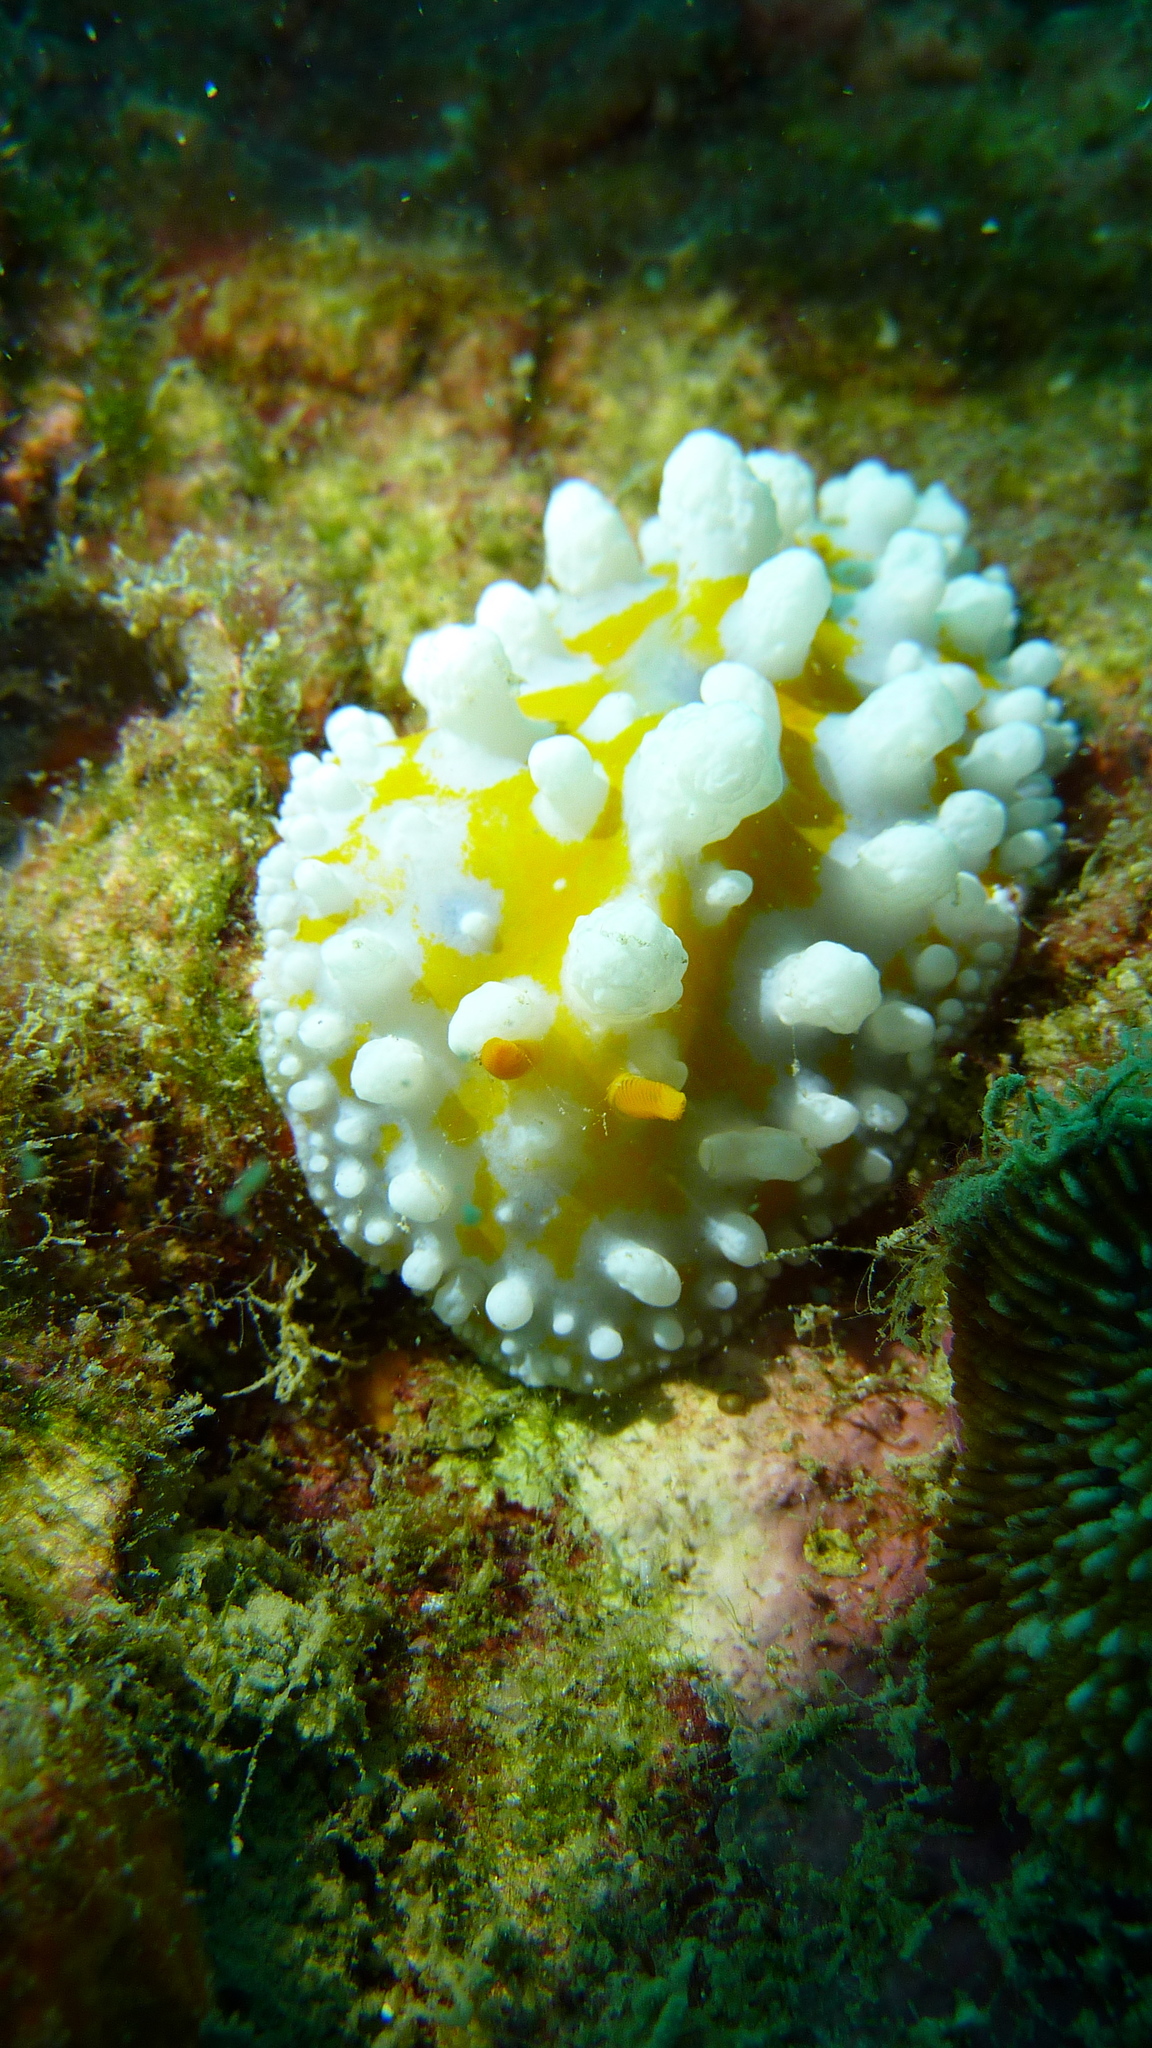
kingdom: Animalia
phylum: Mollusca
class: Gastropoda
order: Nudibranchia
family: Phyllidiidae
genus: Phyllidia
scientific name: Phyllidia ocellata
